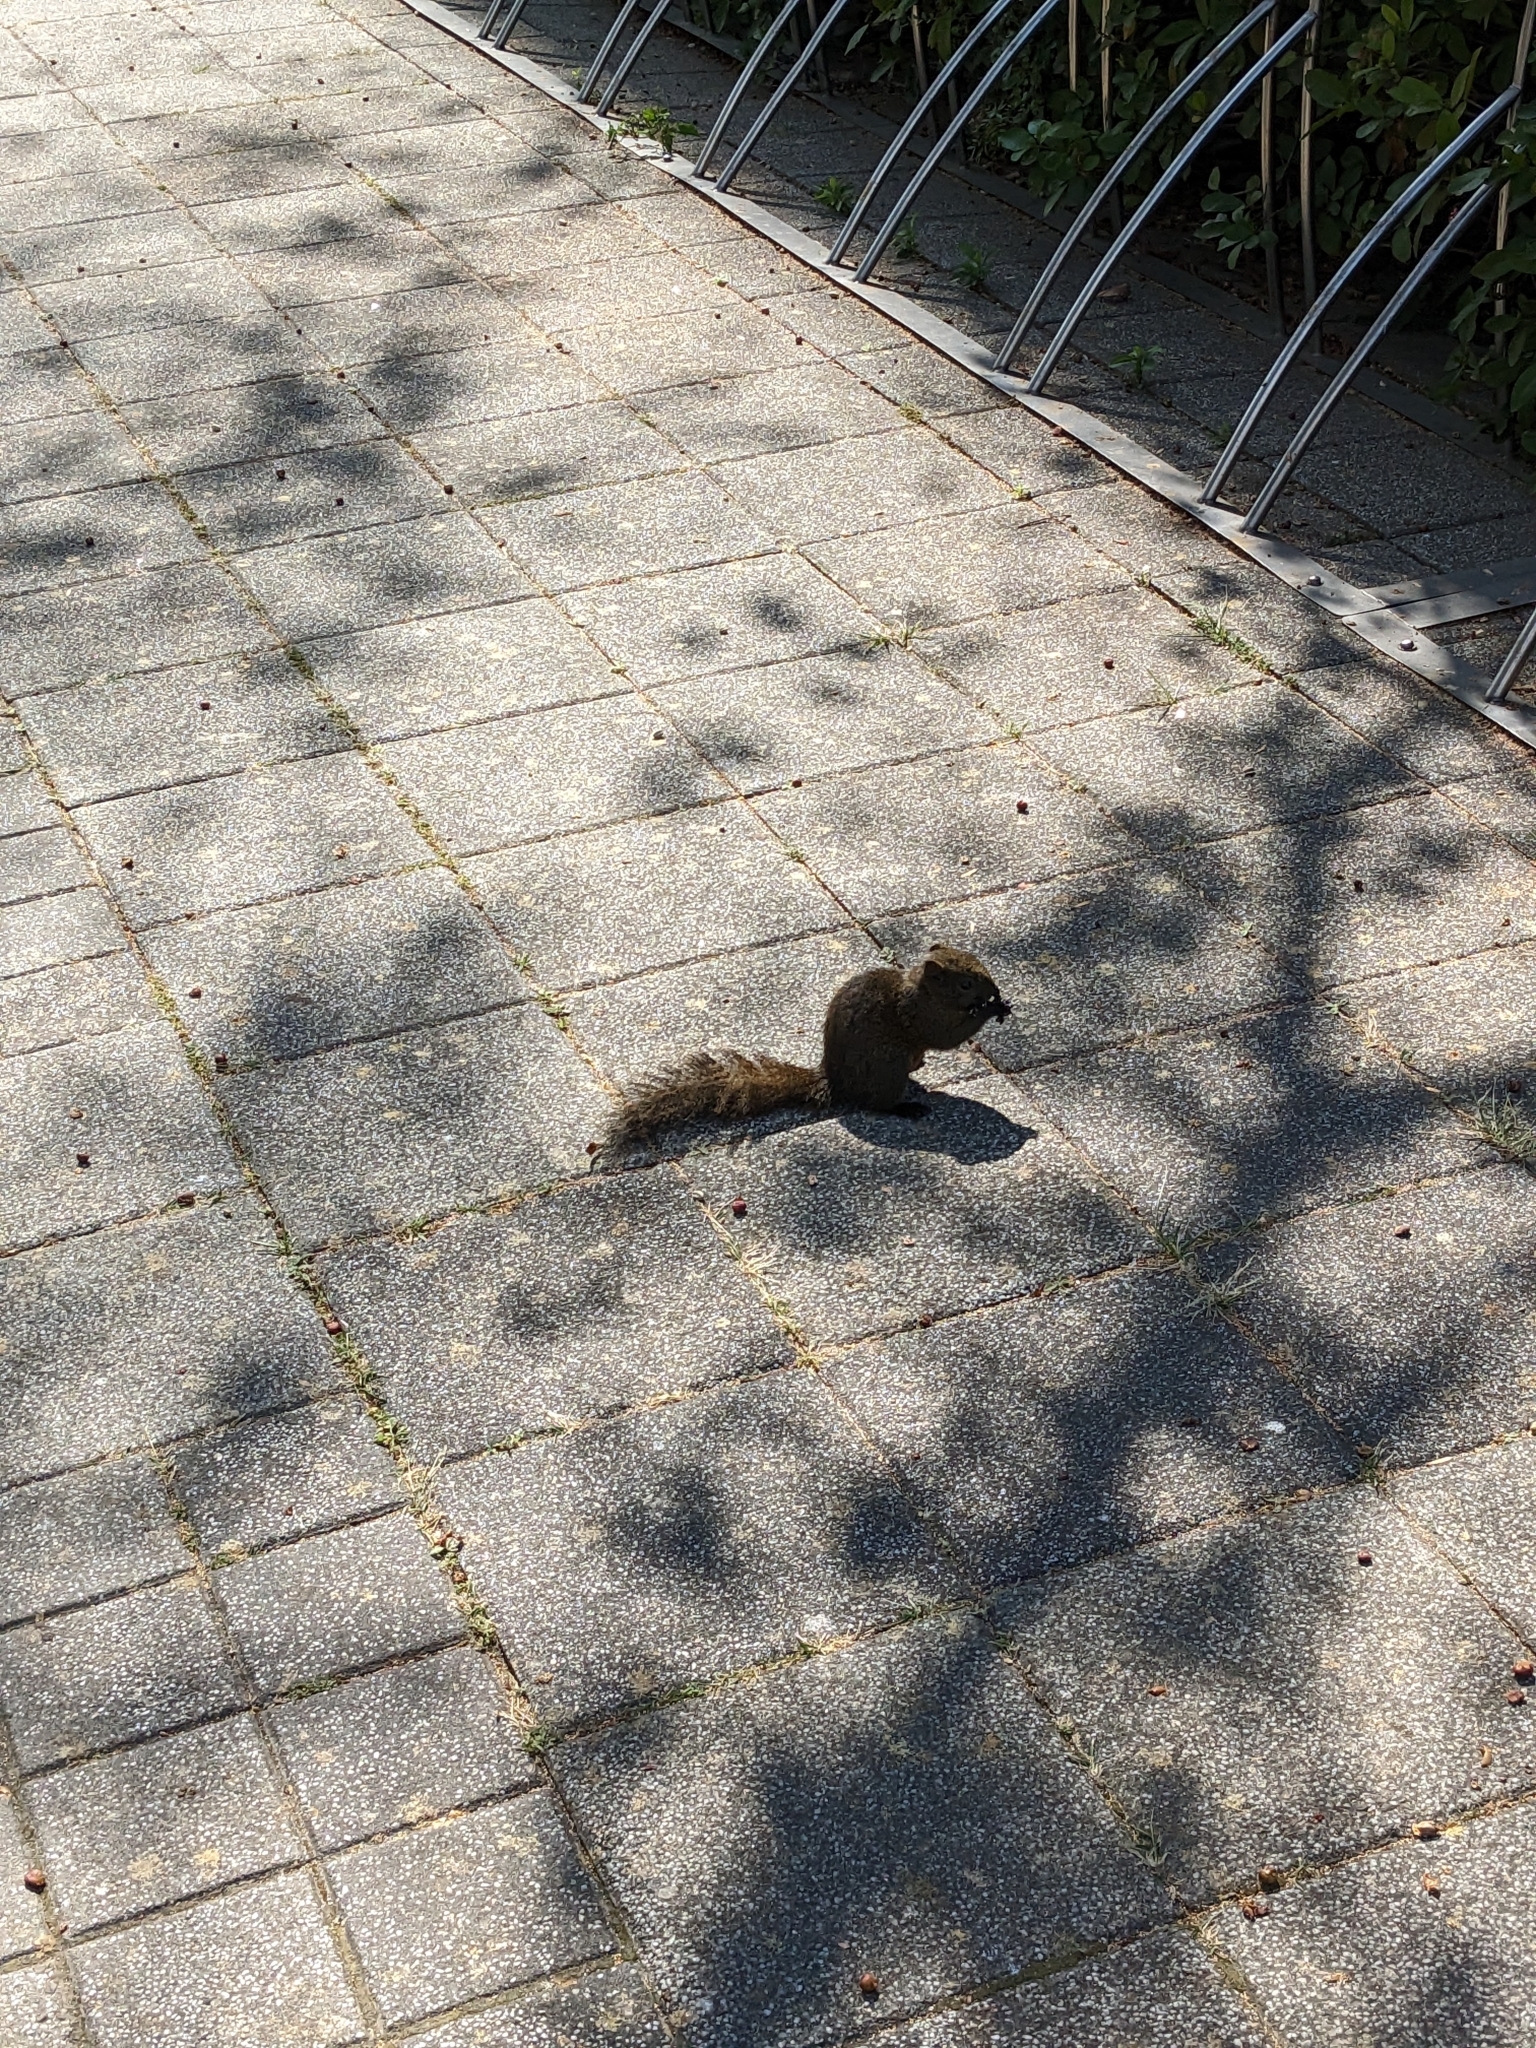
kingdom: Animalia
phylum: Chordata
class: Mammalia
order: Rodentia
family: Sciuridae
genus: Callosciurus
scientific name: Callosciurus erythraeus
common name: Pallas's squirrel
